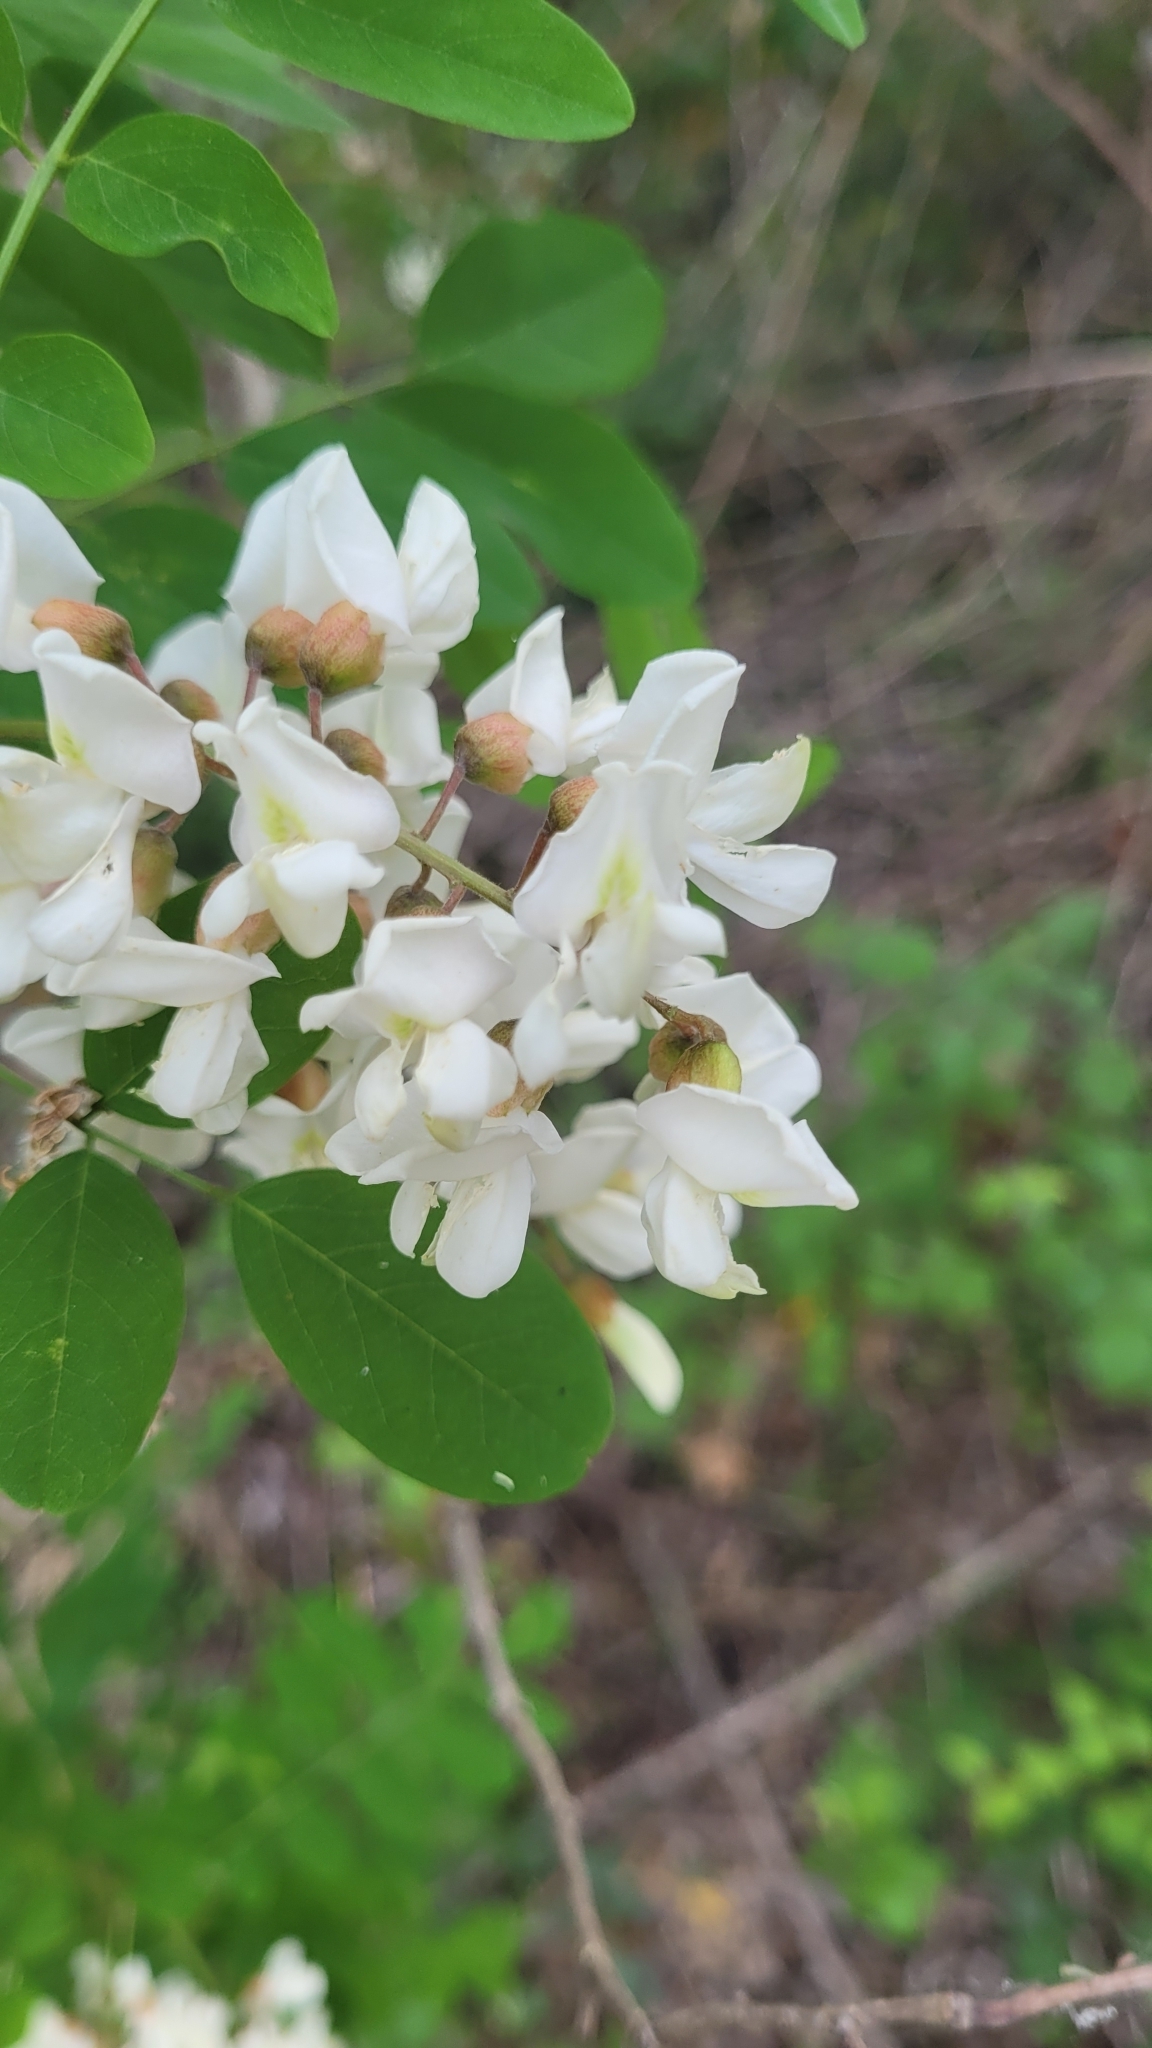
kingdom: Plantae
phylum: Tracheophyta
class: Magnoliopsida
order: Fabales
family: Fabaceae
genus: Robinia
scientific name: Robinia pseudoacacia
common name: Black locust
